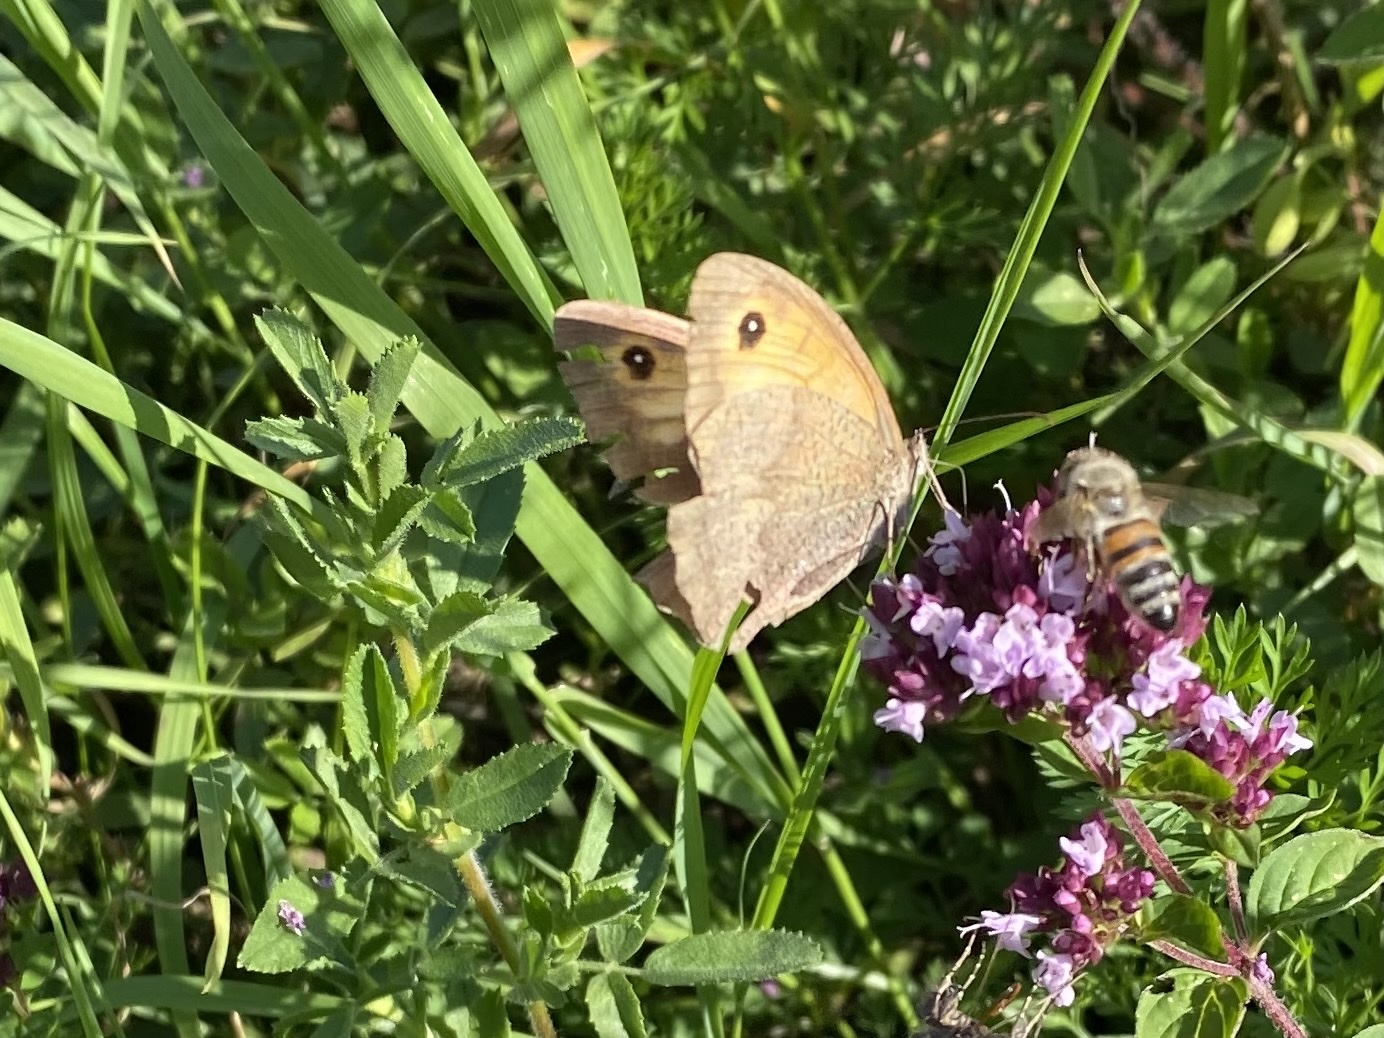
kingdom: Animalia
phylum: Arthropoda
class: Insecta
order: Lepidoptera
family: Nymphalidae
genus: Maniola
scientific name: Maniola jurtina
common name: Meadow brown
